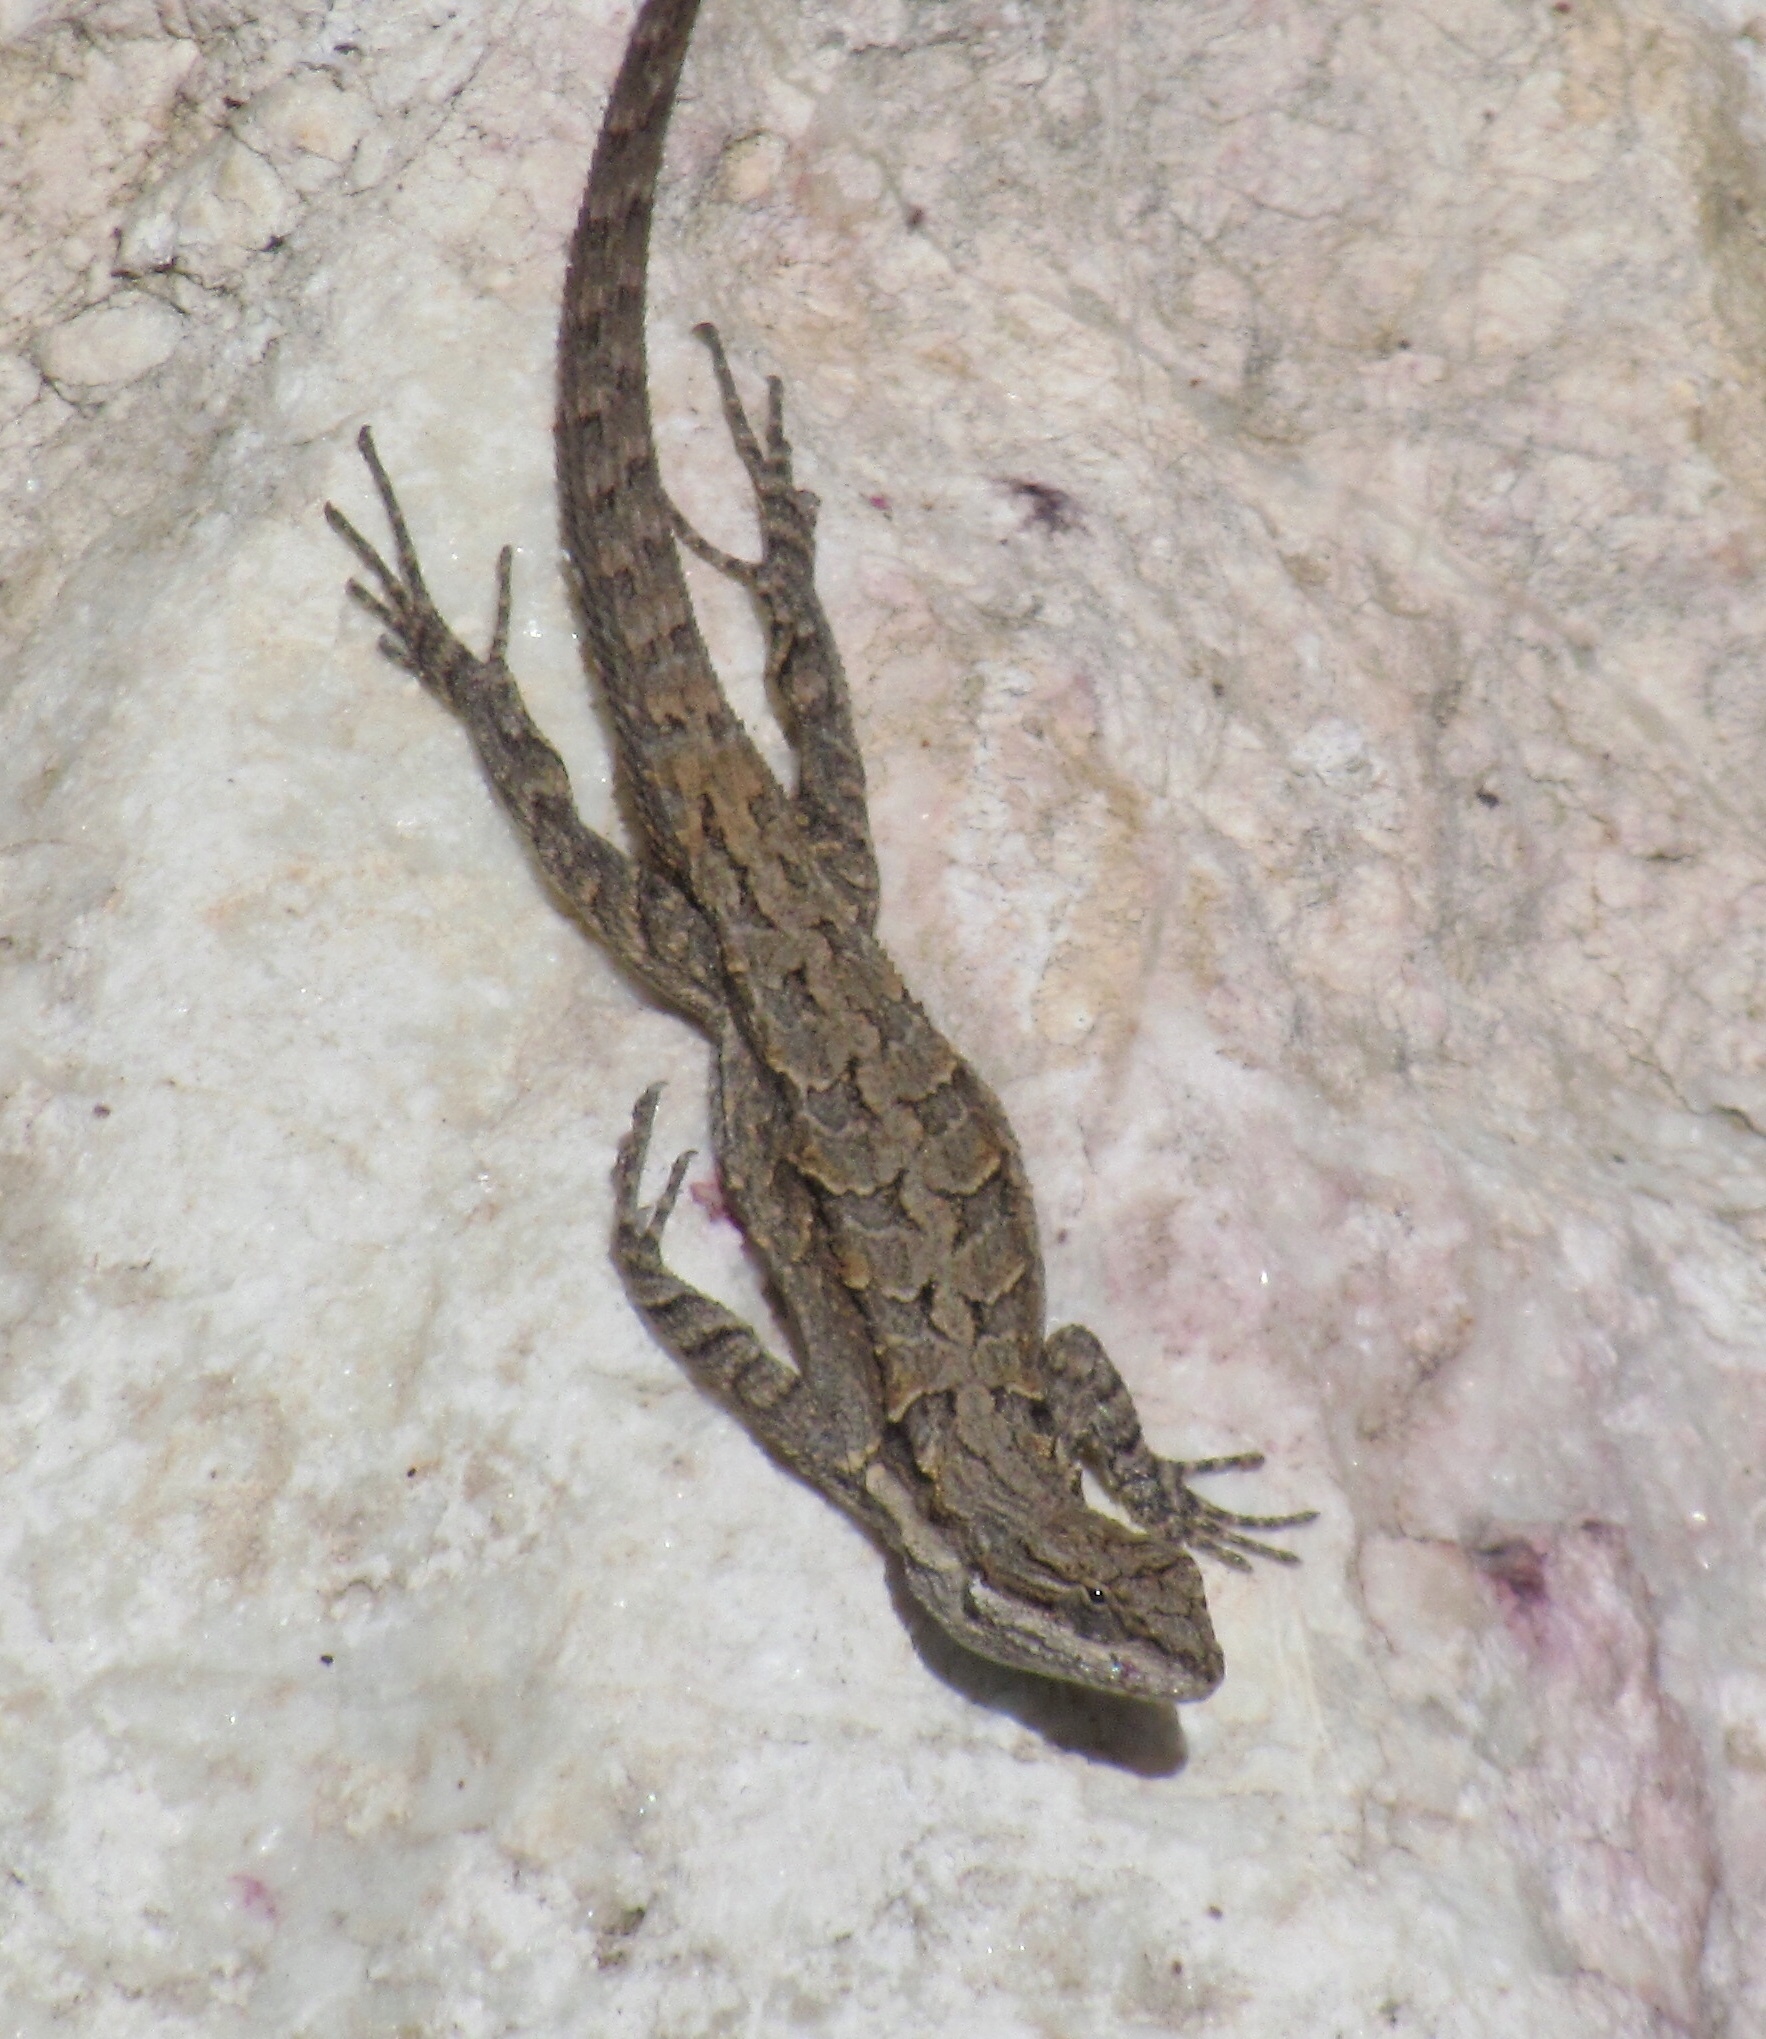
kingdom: Animalia
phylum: Chordata
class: Squamata
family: Phrynosomatidae
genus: Urosaurus
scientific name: Urosaurus ornatus
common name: Ornate tree lizard
